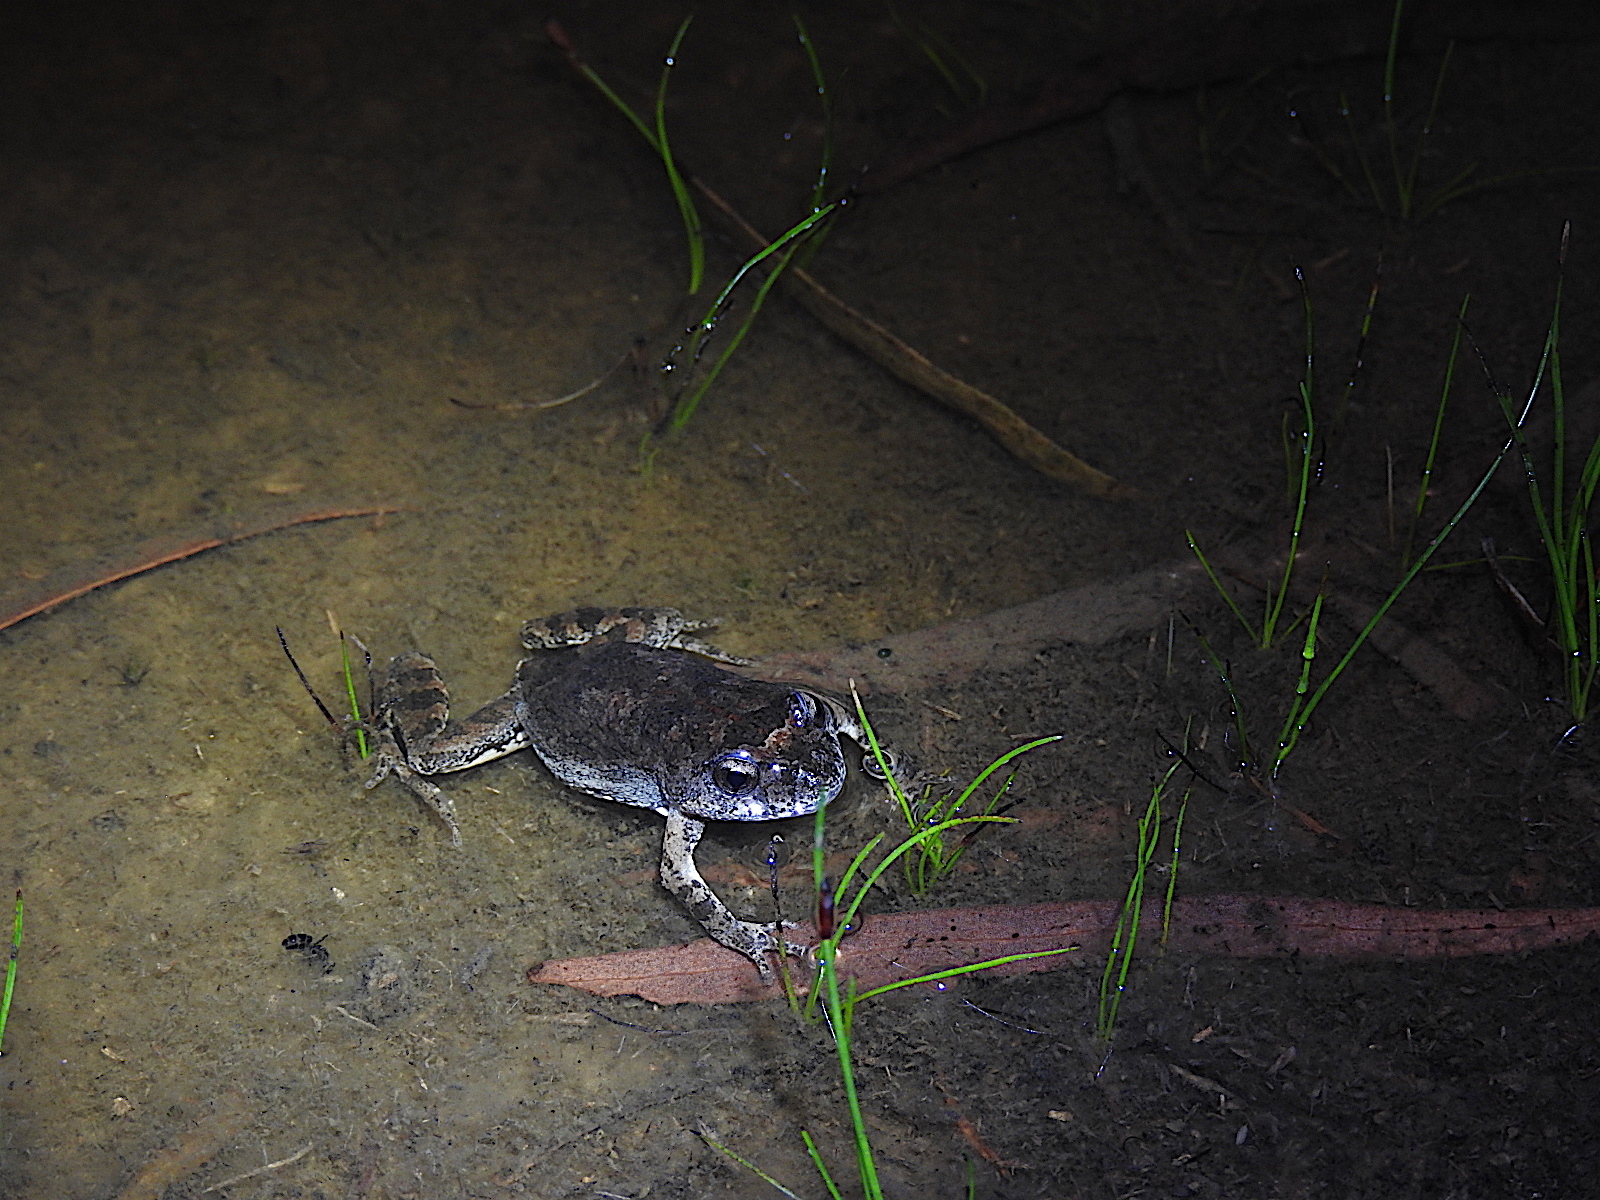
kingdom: Animalia
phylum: Chordata
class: Amphibia
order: Anura
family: Myobatrachidae
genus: Crinia
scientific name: Crinia signifera
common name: Brown froglet
